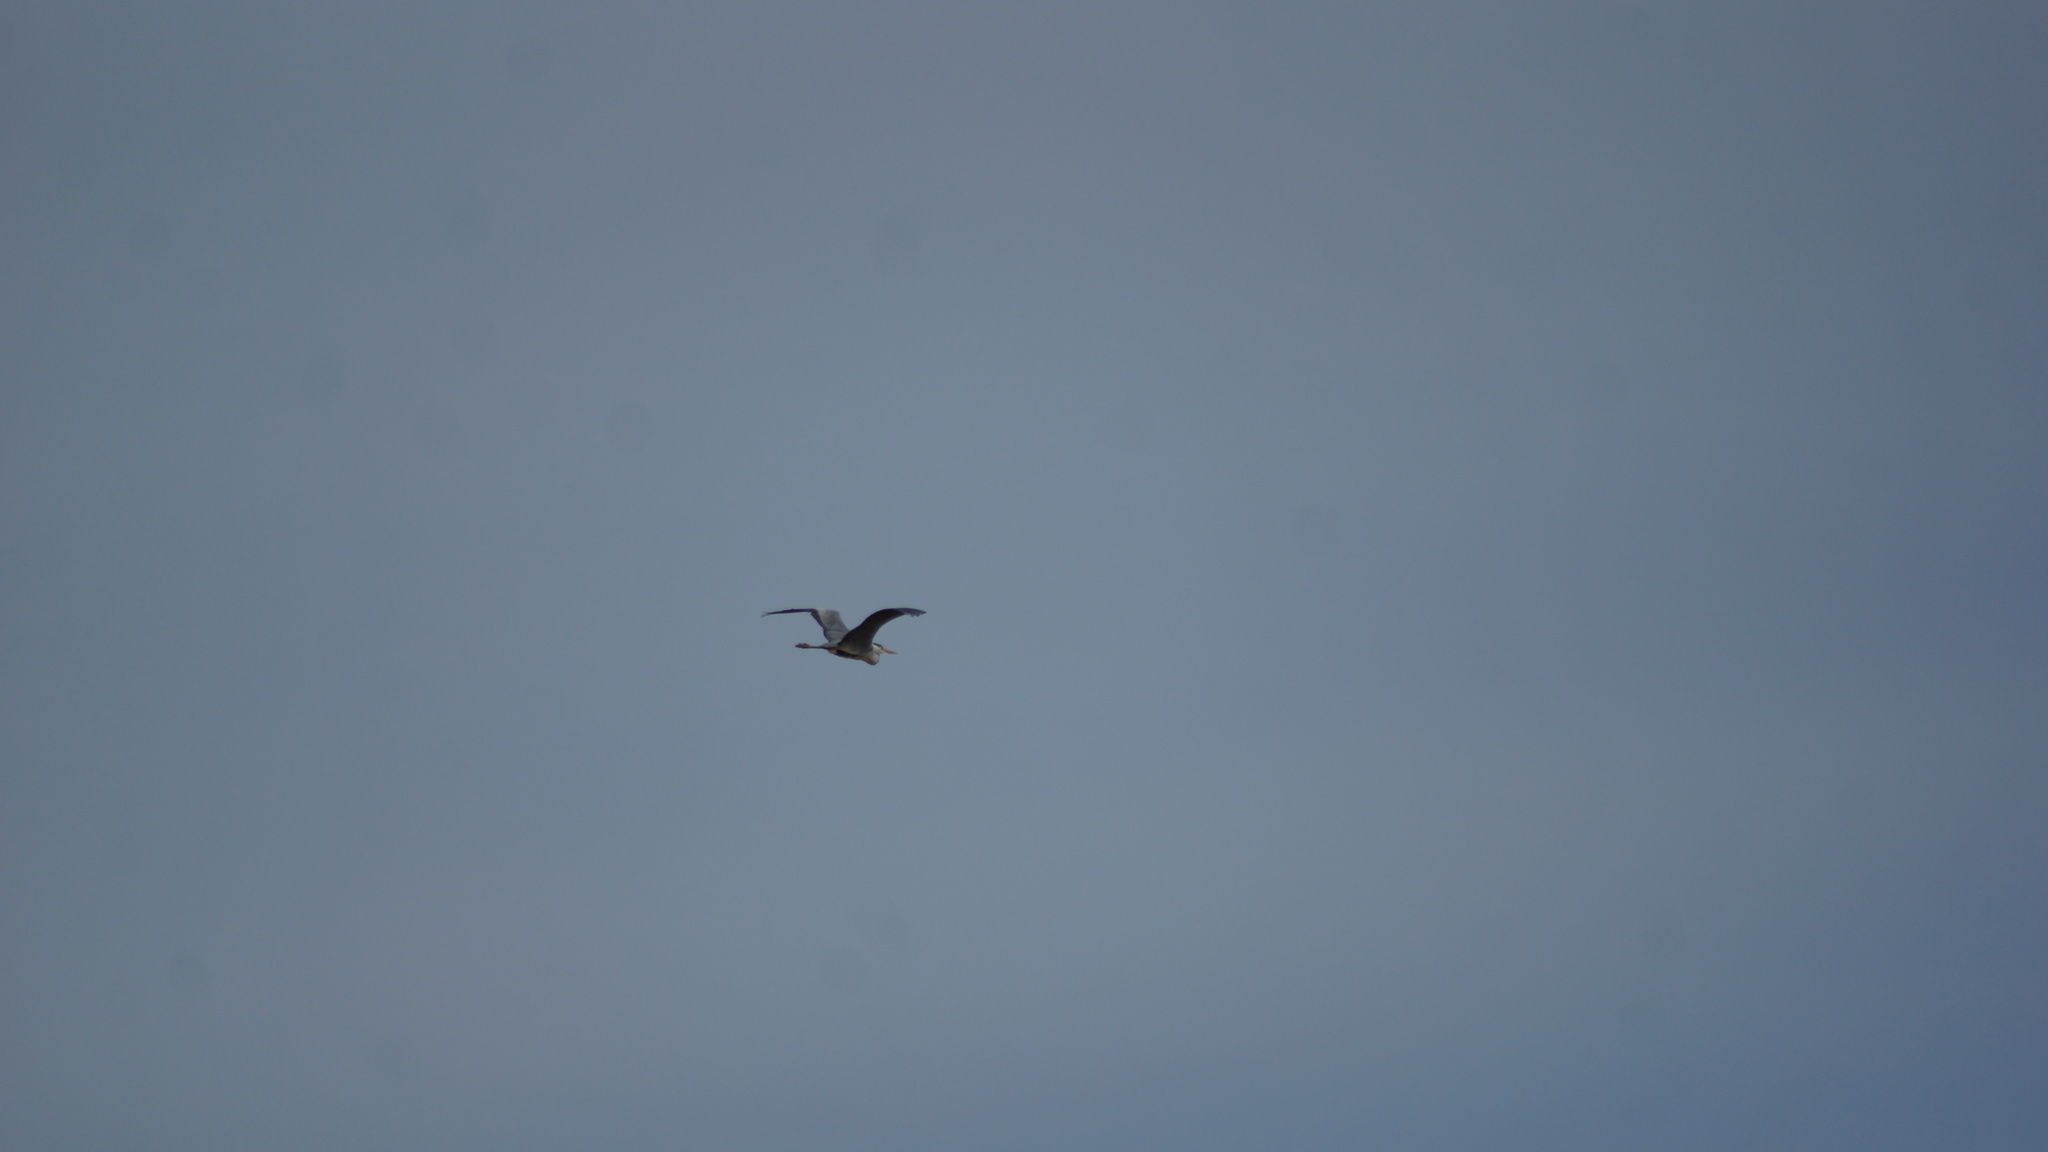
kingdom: Animalia
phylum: Chordata
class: Aves
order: Pelecaniformes
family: Ardeidae
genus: Ardea
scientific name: Ardea cinerea
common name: Grey heron
